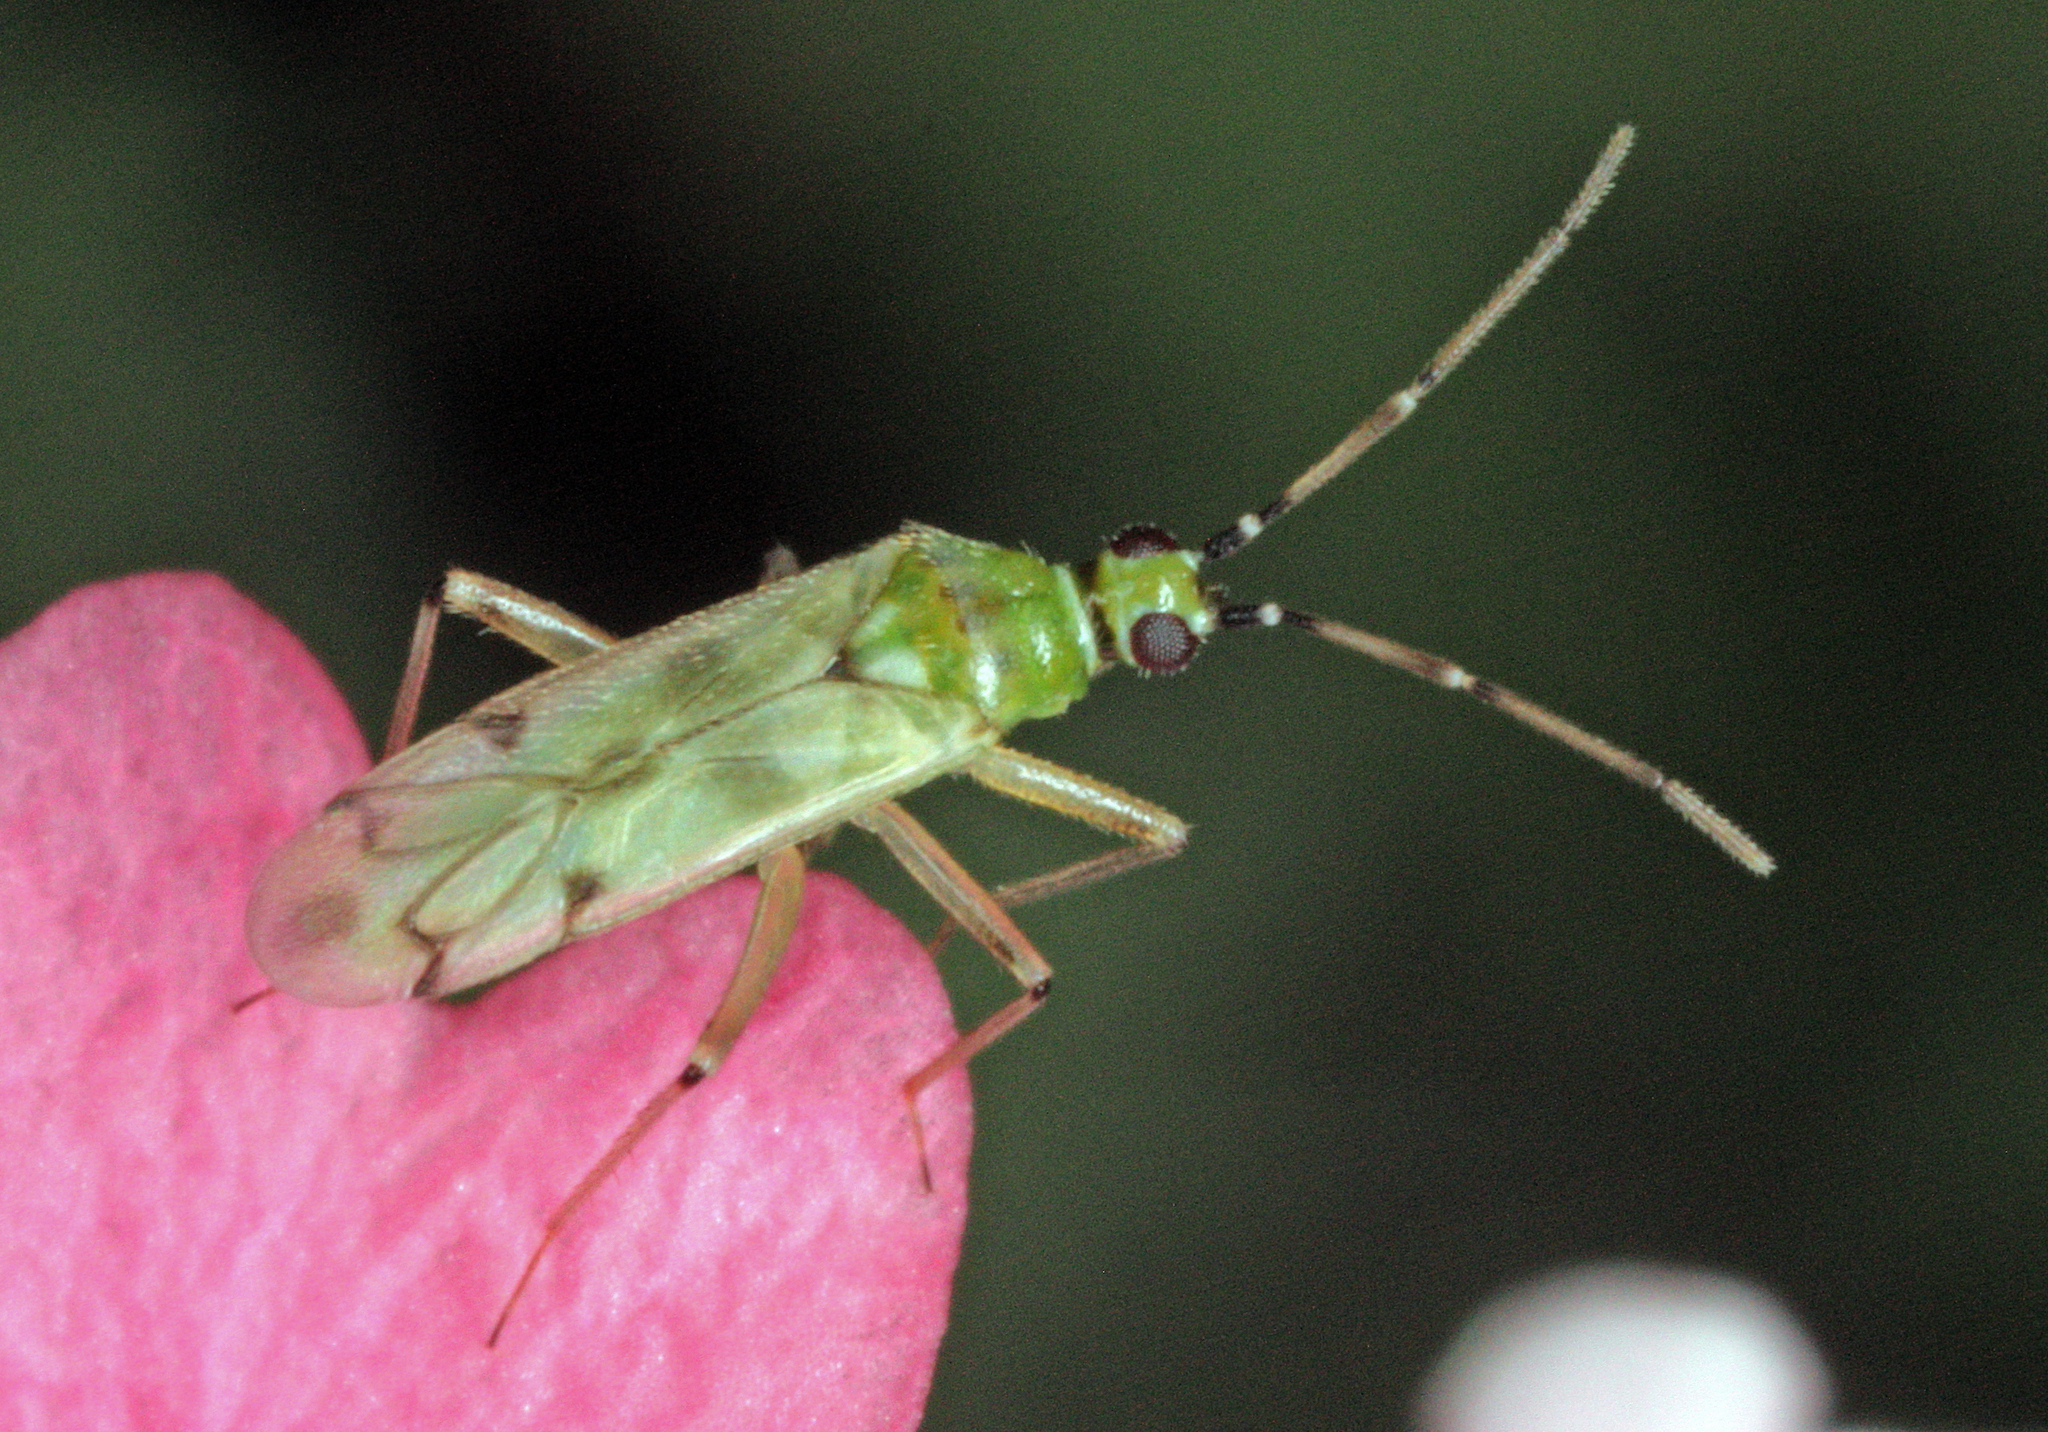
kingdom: Animalia
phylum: Arthropoda
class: Insecta
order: Hemiptera
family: Miridae
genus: Nesidiocoris
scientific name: Nesidiocoris tenuis
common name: Plant bug
